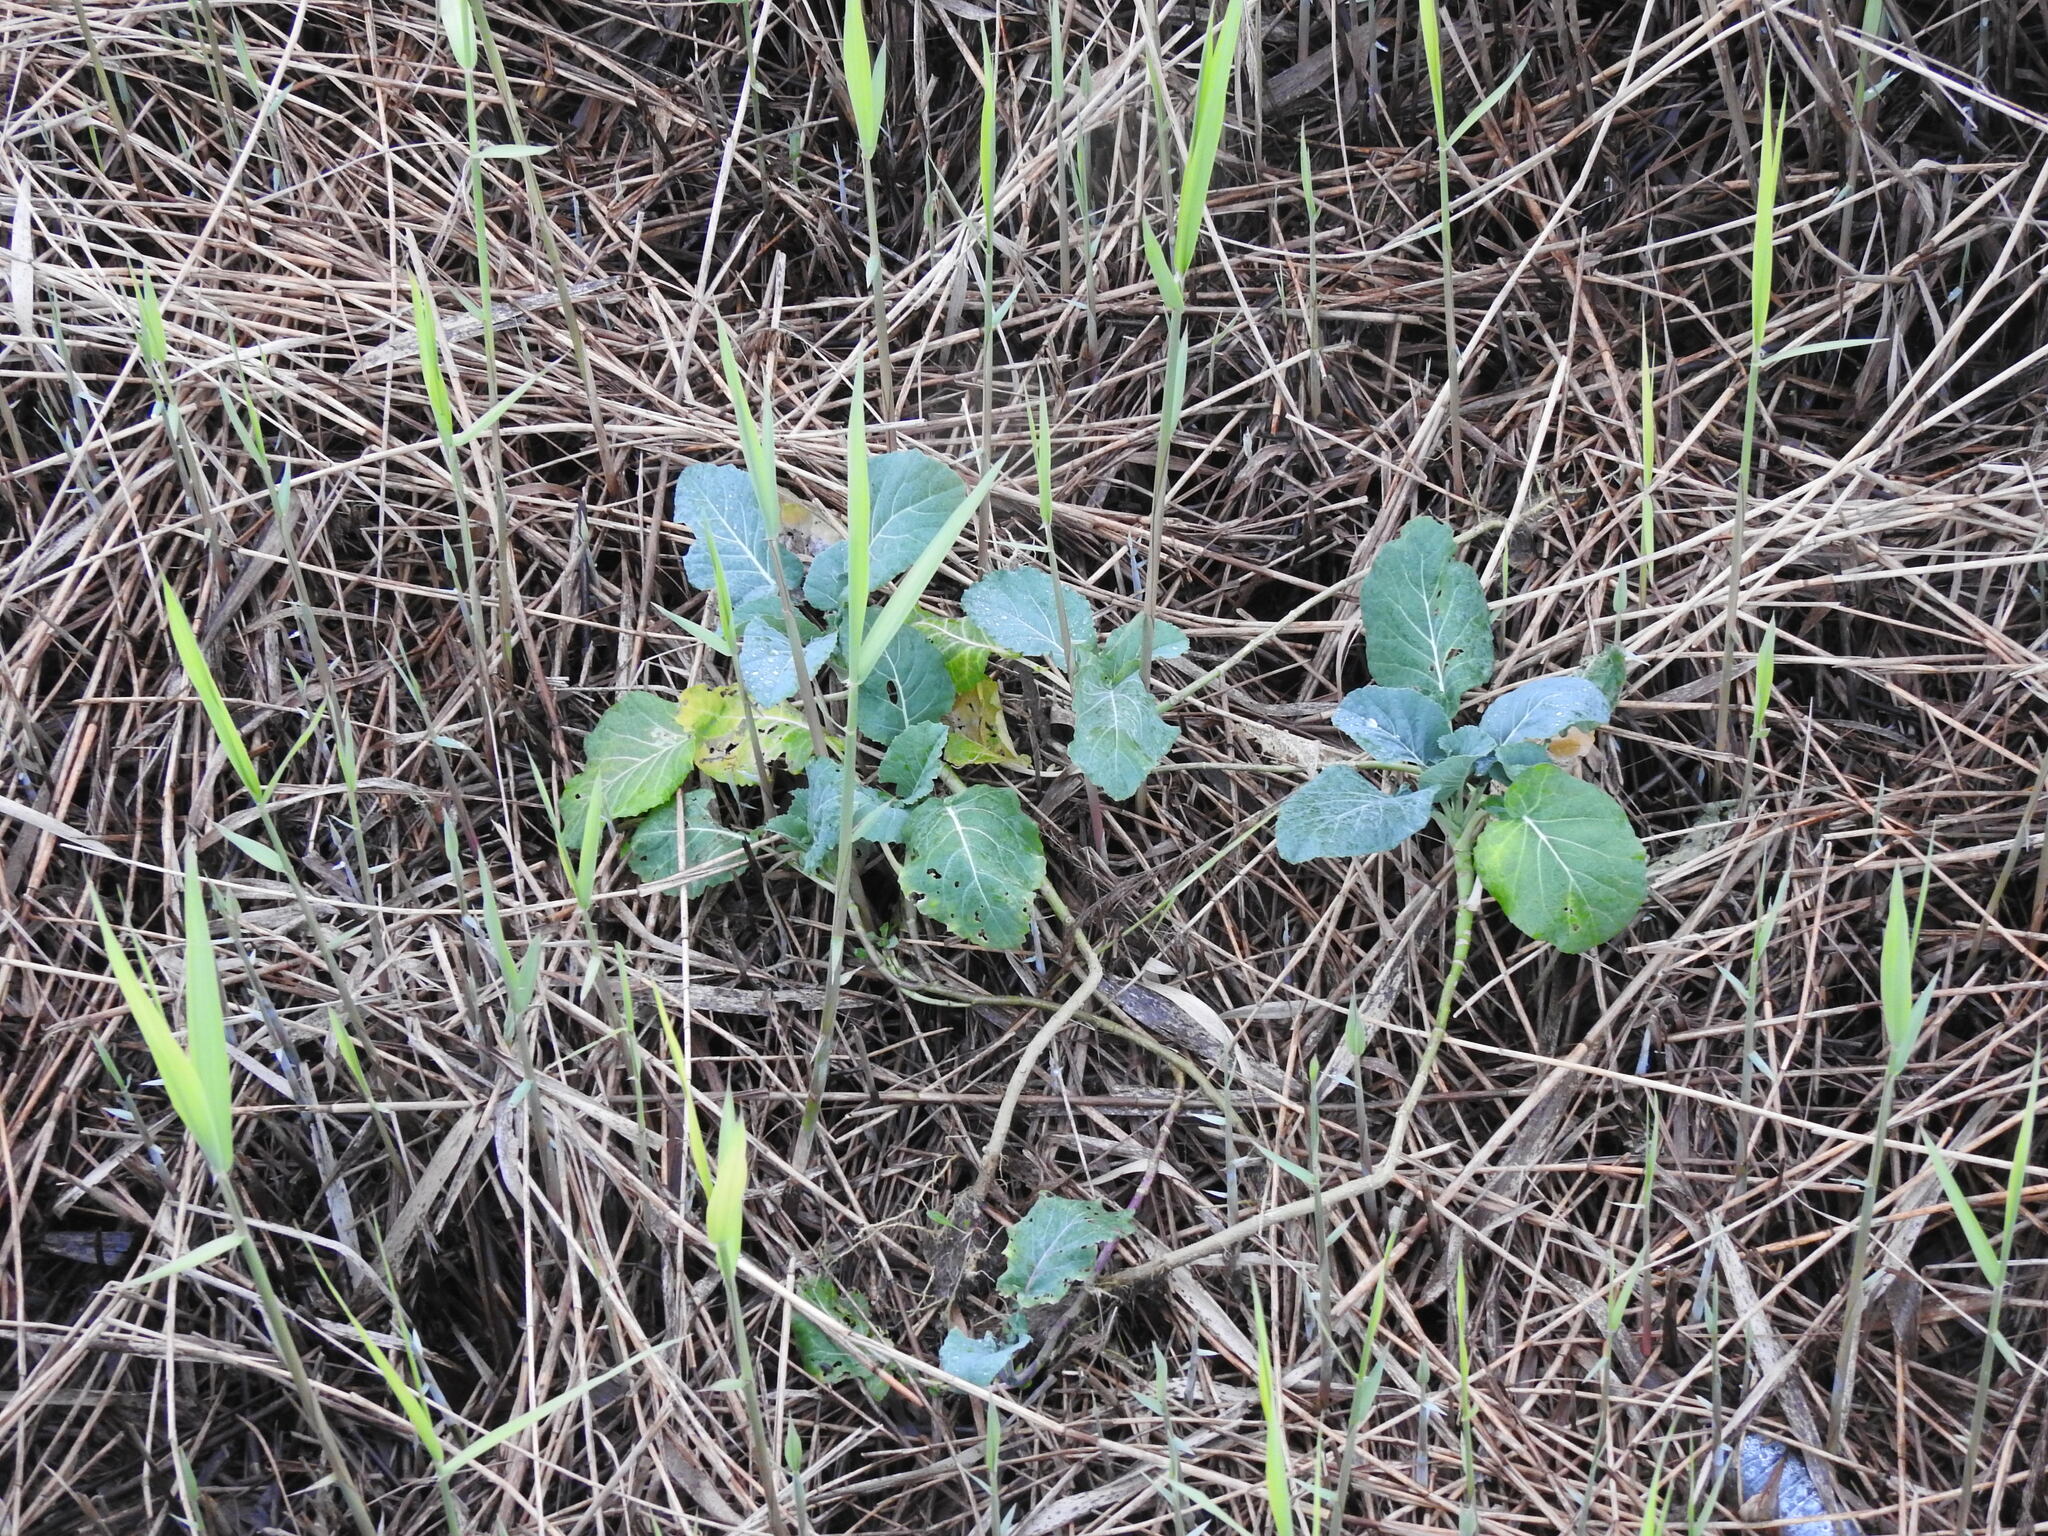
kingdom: Plantae
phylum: Tracheophyta
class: Magnoliopsida
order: Brassicales
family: Brassicaceae
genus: Brassica
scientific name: Brassica oleracea
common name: Cabbage
